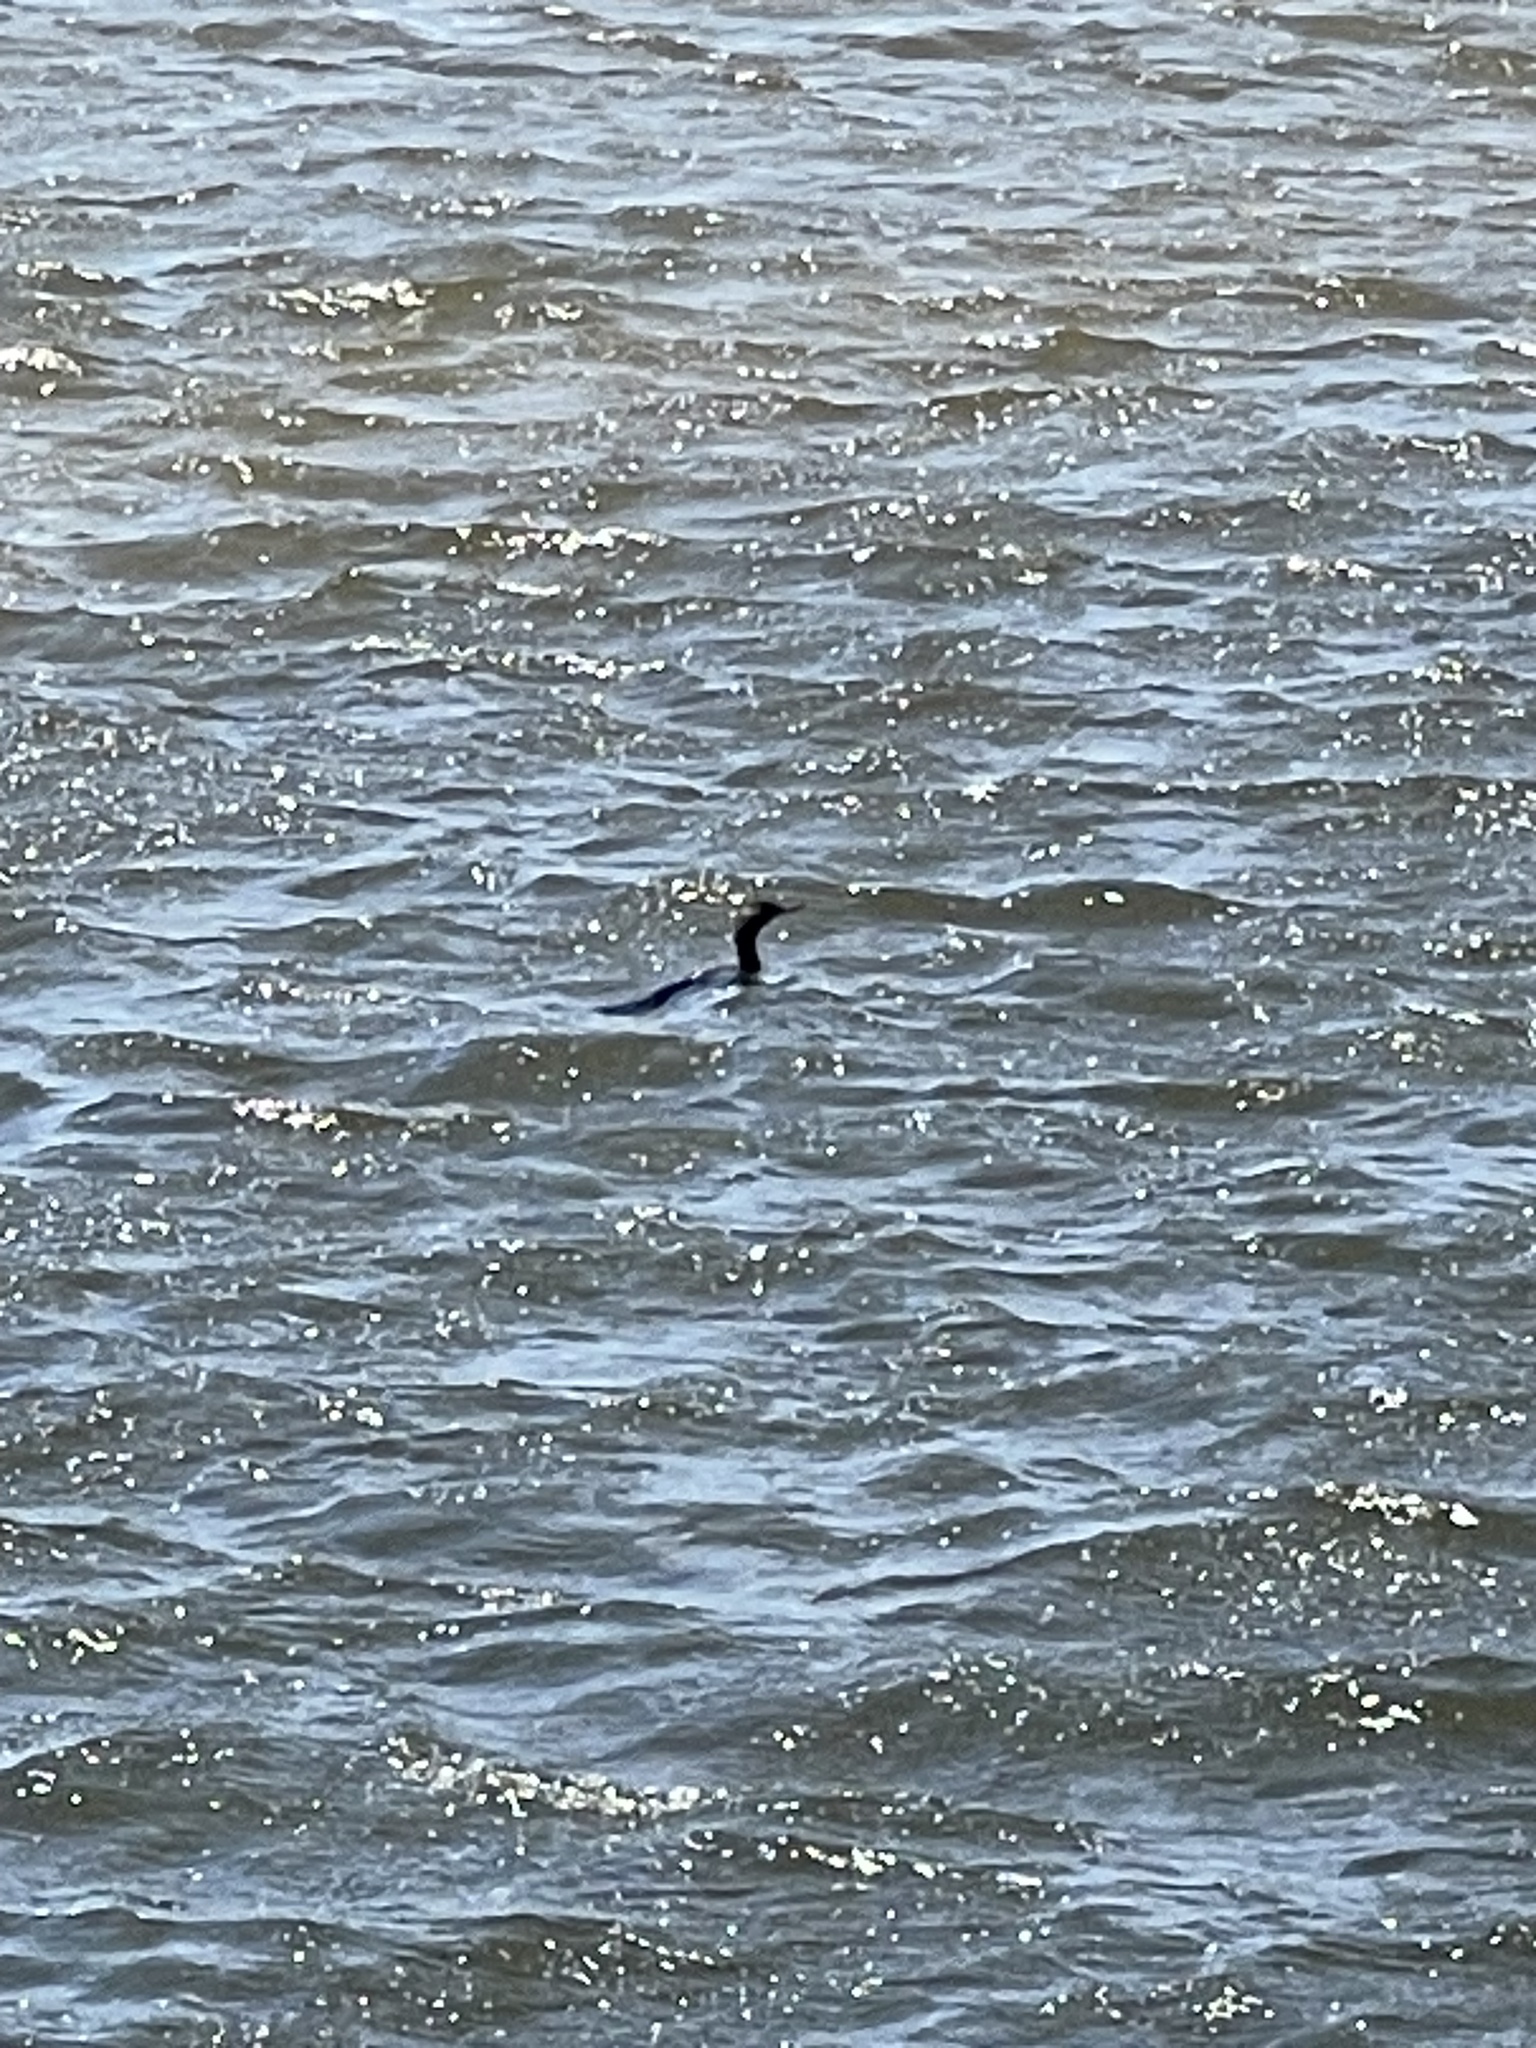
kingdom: Animalia
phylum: Chordata
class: Aves
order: Suliformes
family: Phalacrocoracidae
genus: Phalacrocorax
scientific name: Phalacrocorax auritus
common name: Double-crested cormorant
